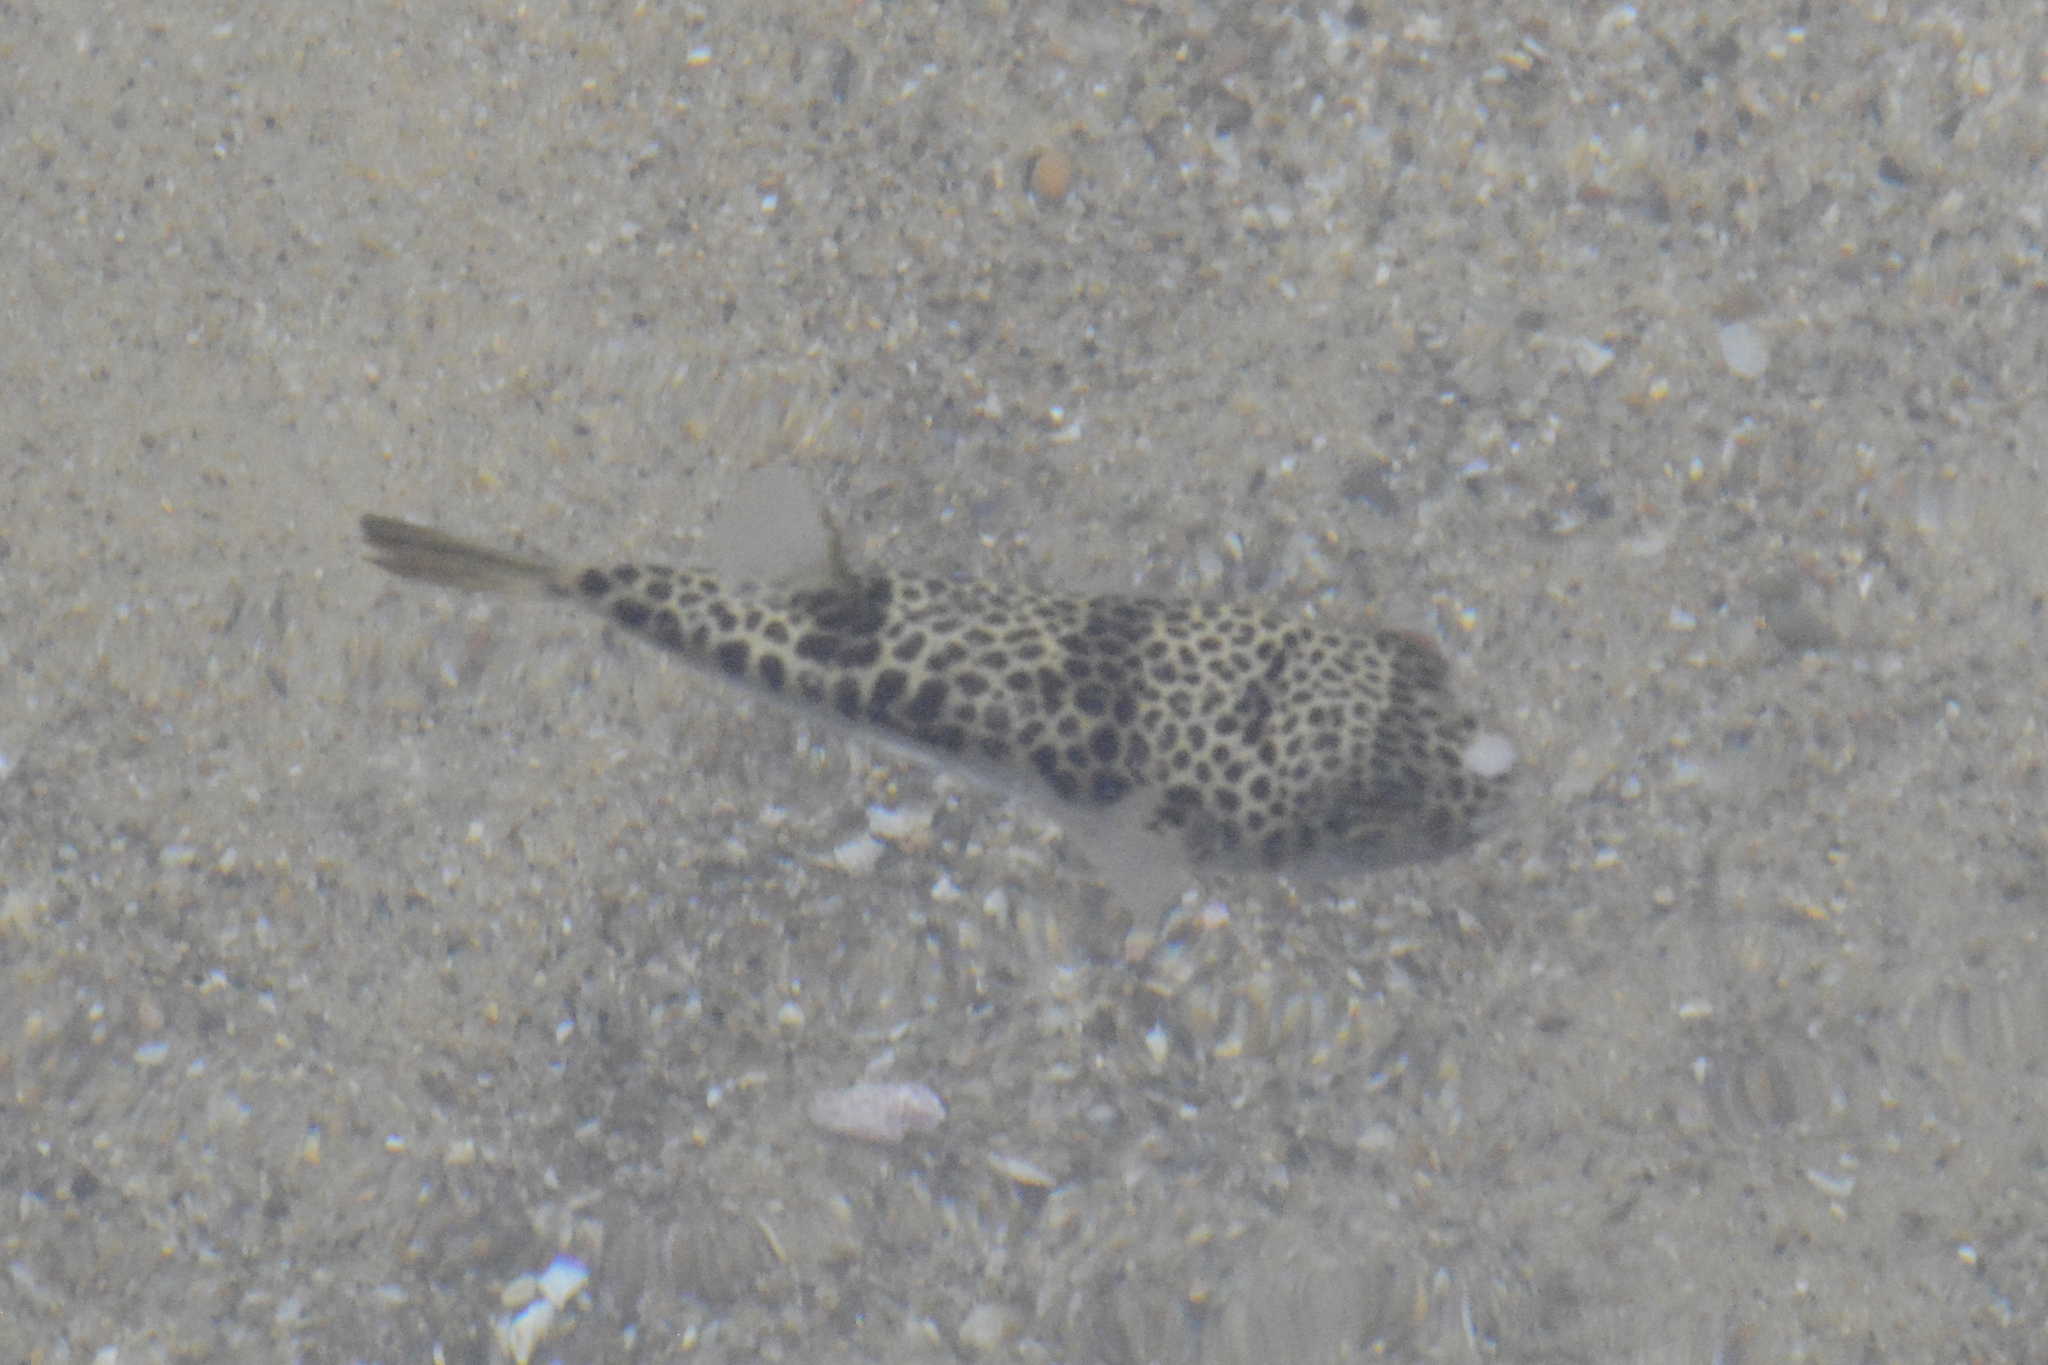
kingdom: Animalia
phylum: Chordata
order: Tetraodontiformes
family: Tetraodontidae
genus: Tetractenos
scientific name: Tetractenos glaber
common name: Smooth toadfish
